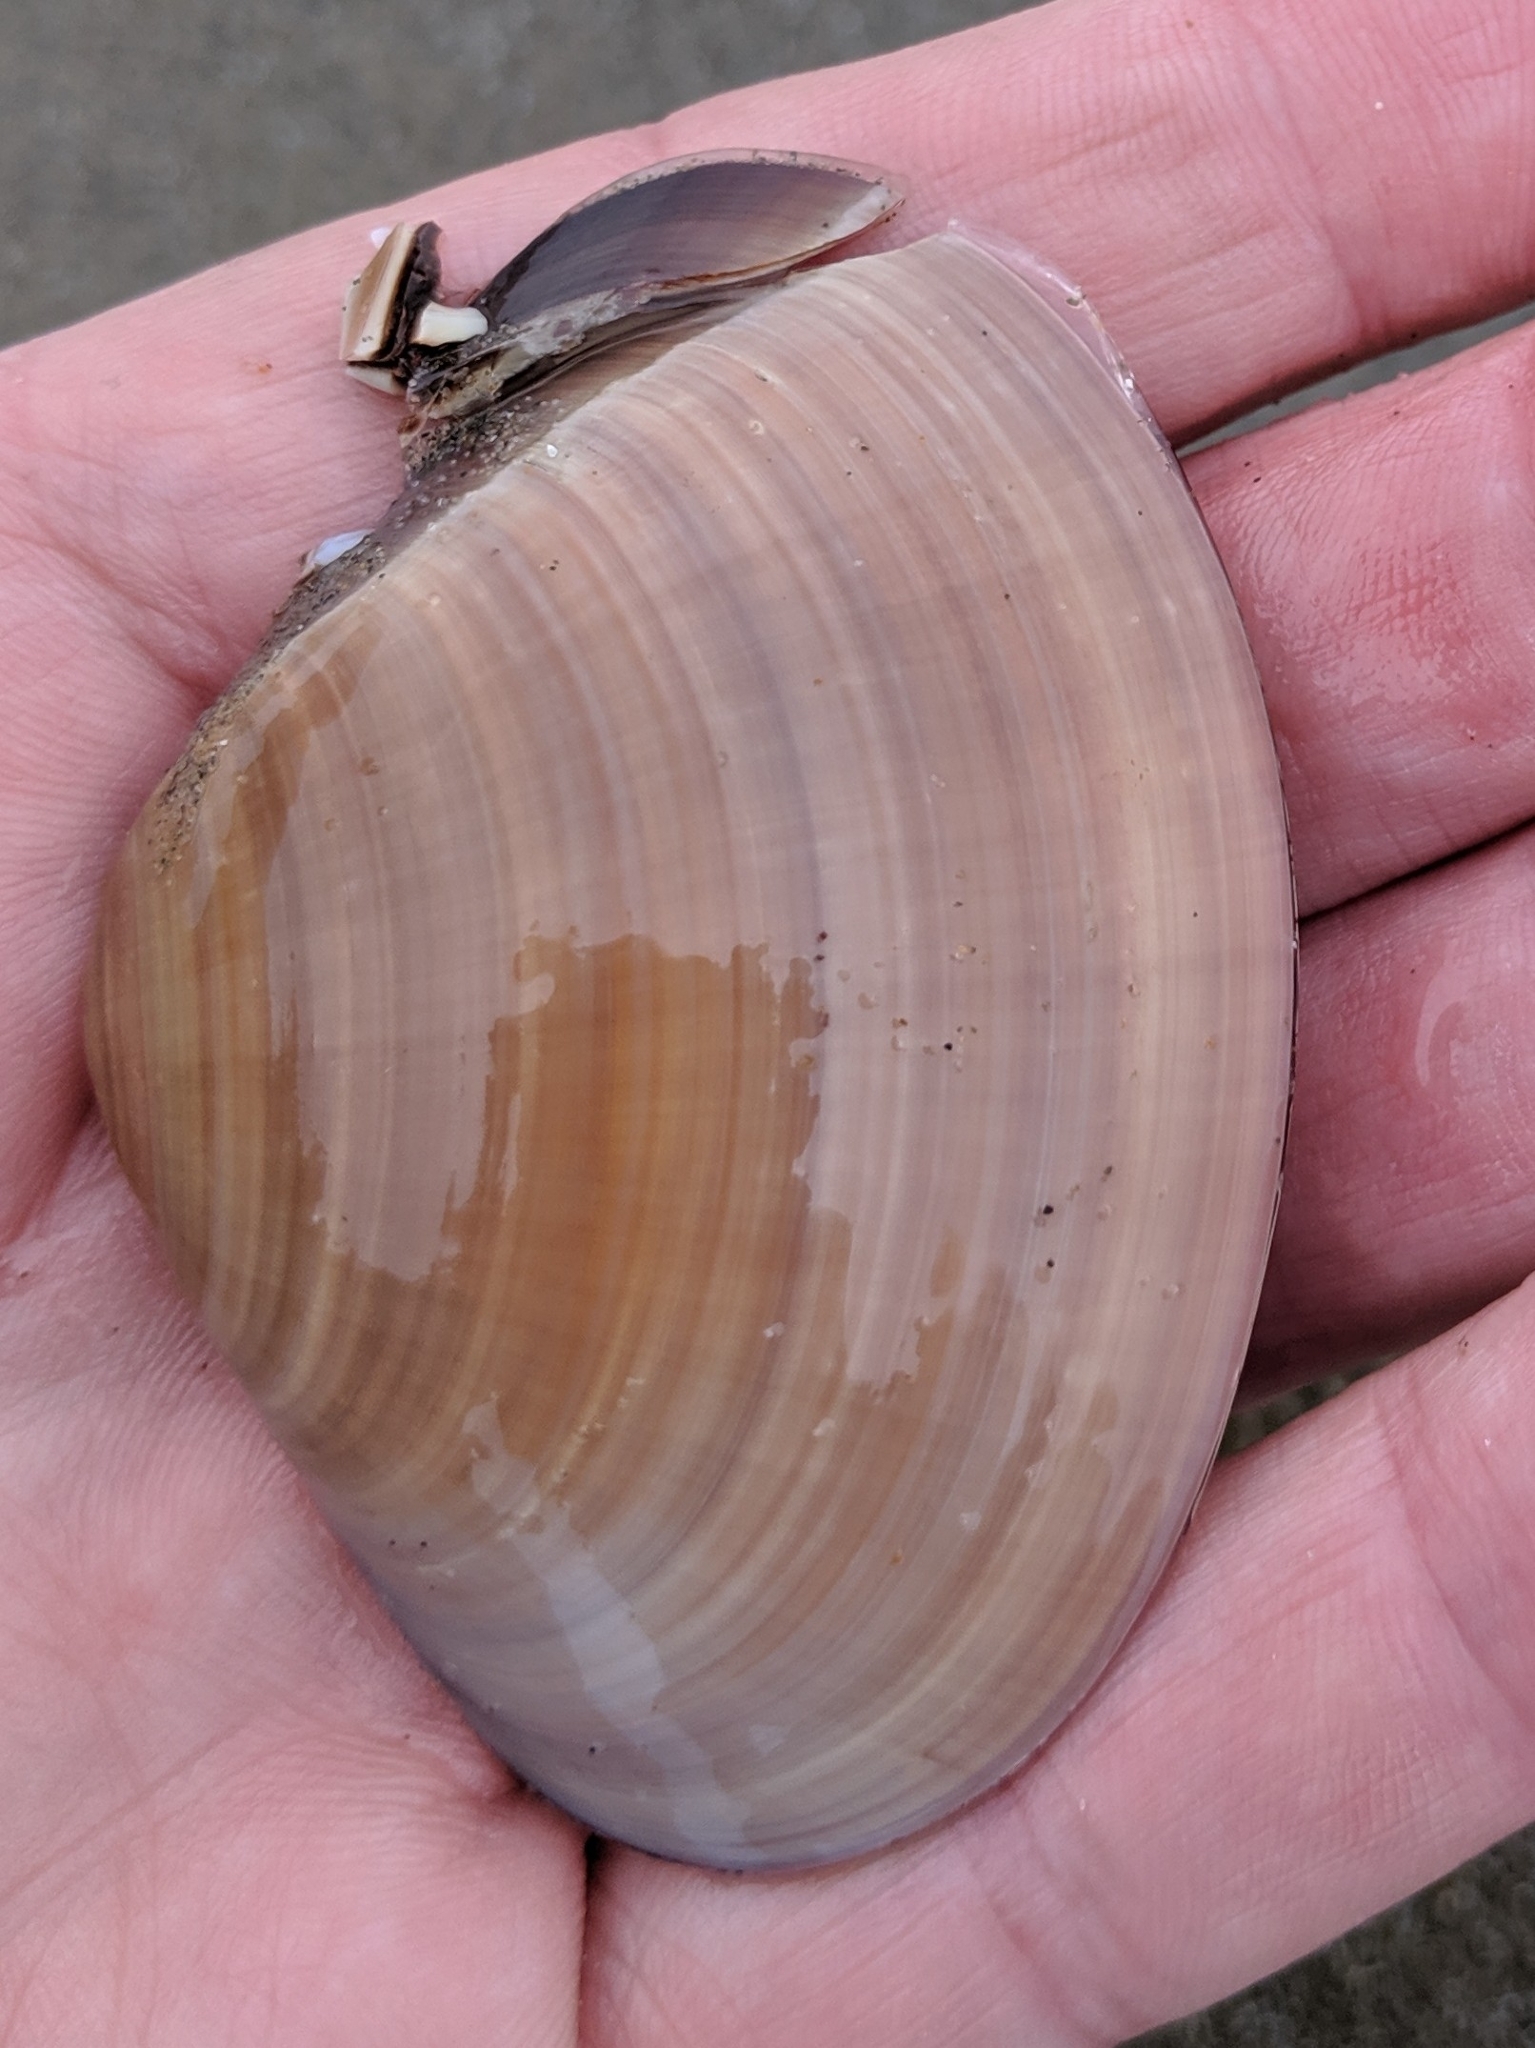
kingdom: Animalia
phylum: Mollusca
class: Bivalvia
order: Venerida
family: Veneridae
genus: Tivela
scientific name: Tivela stultorum
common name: Pismo clam
